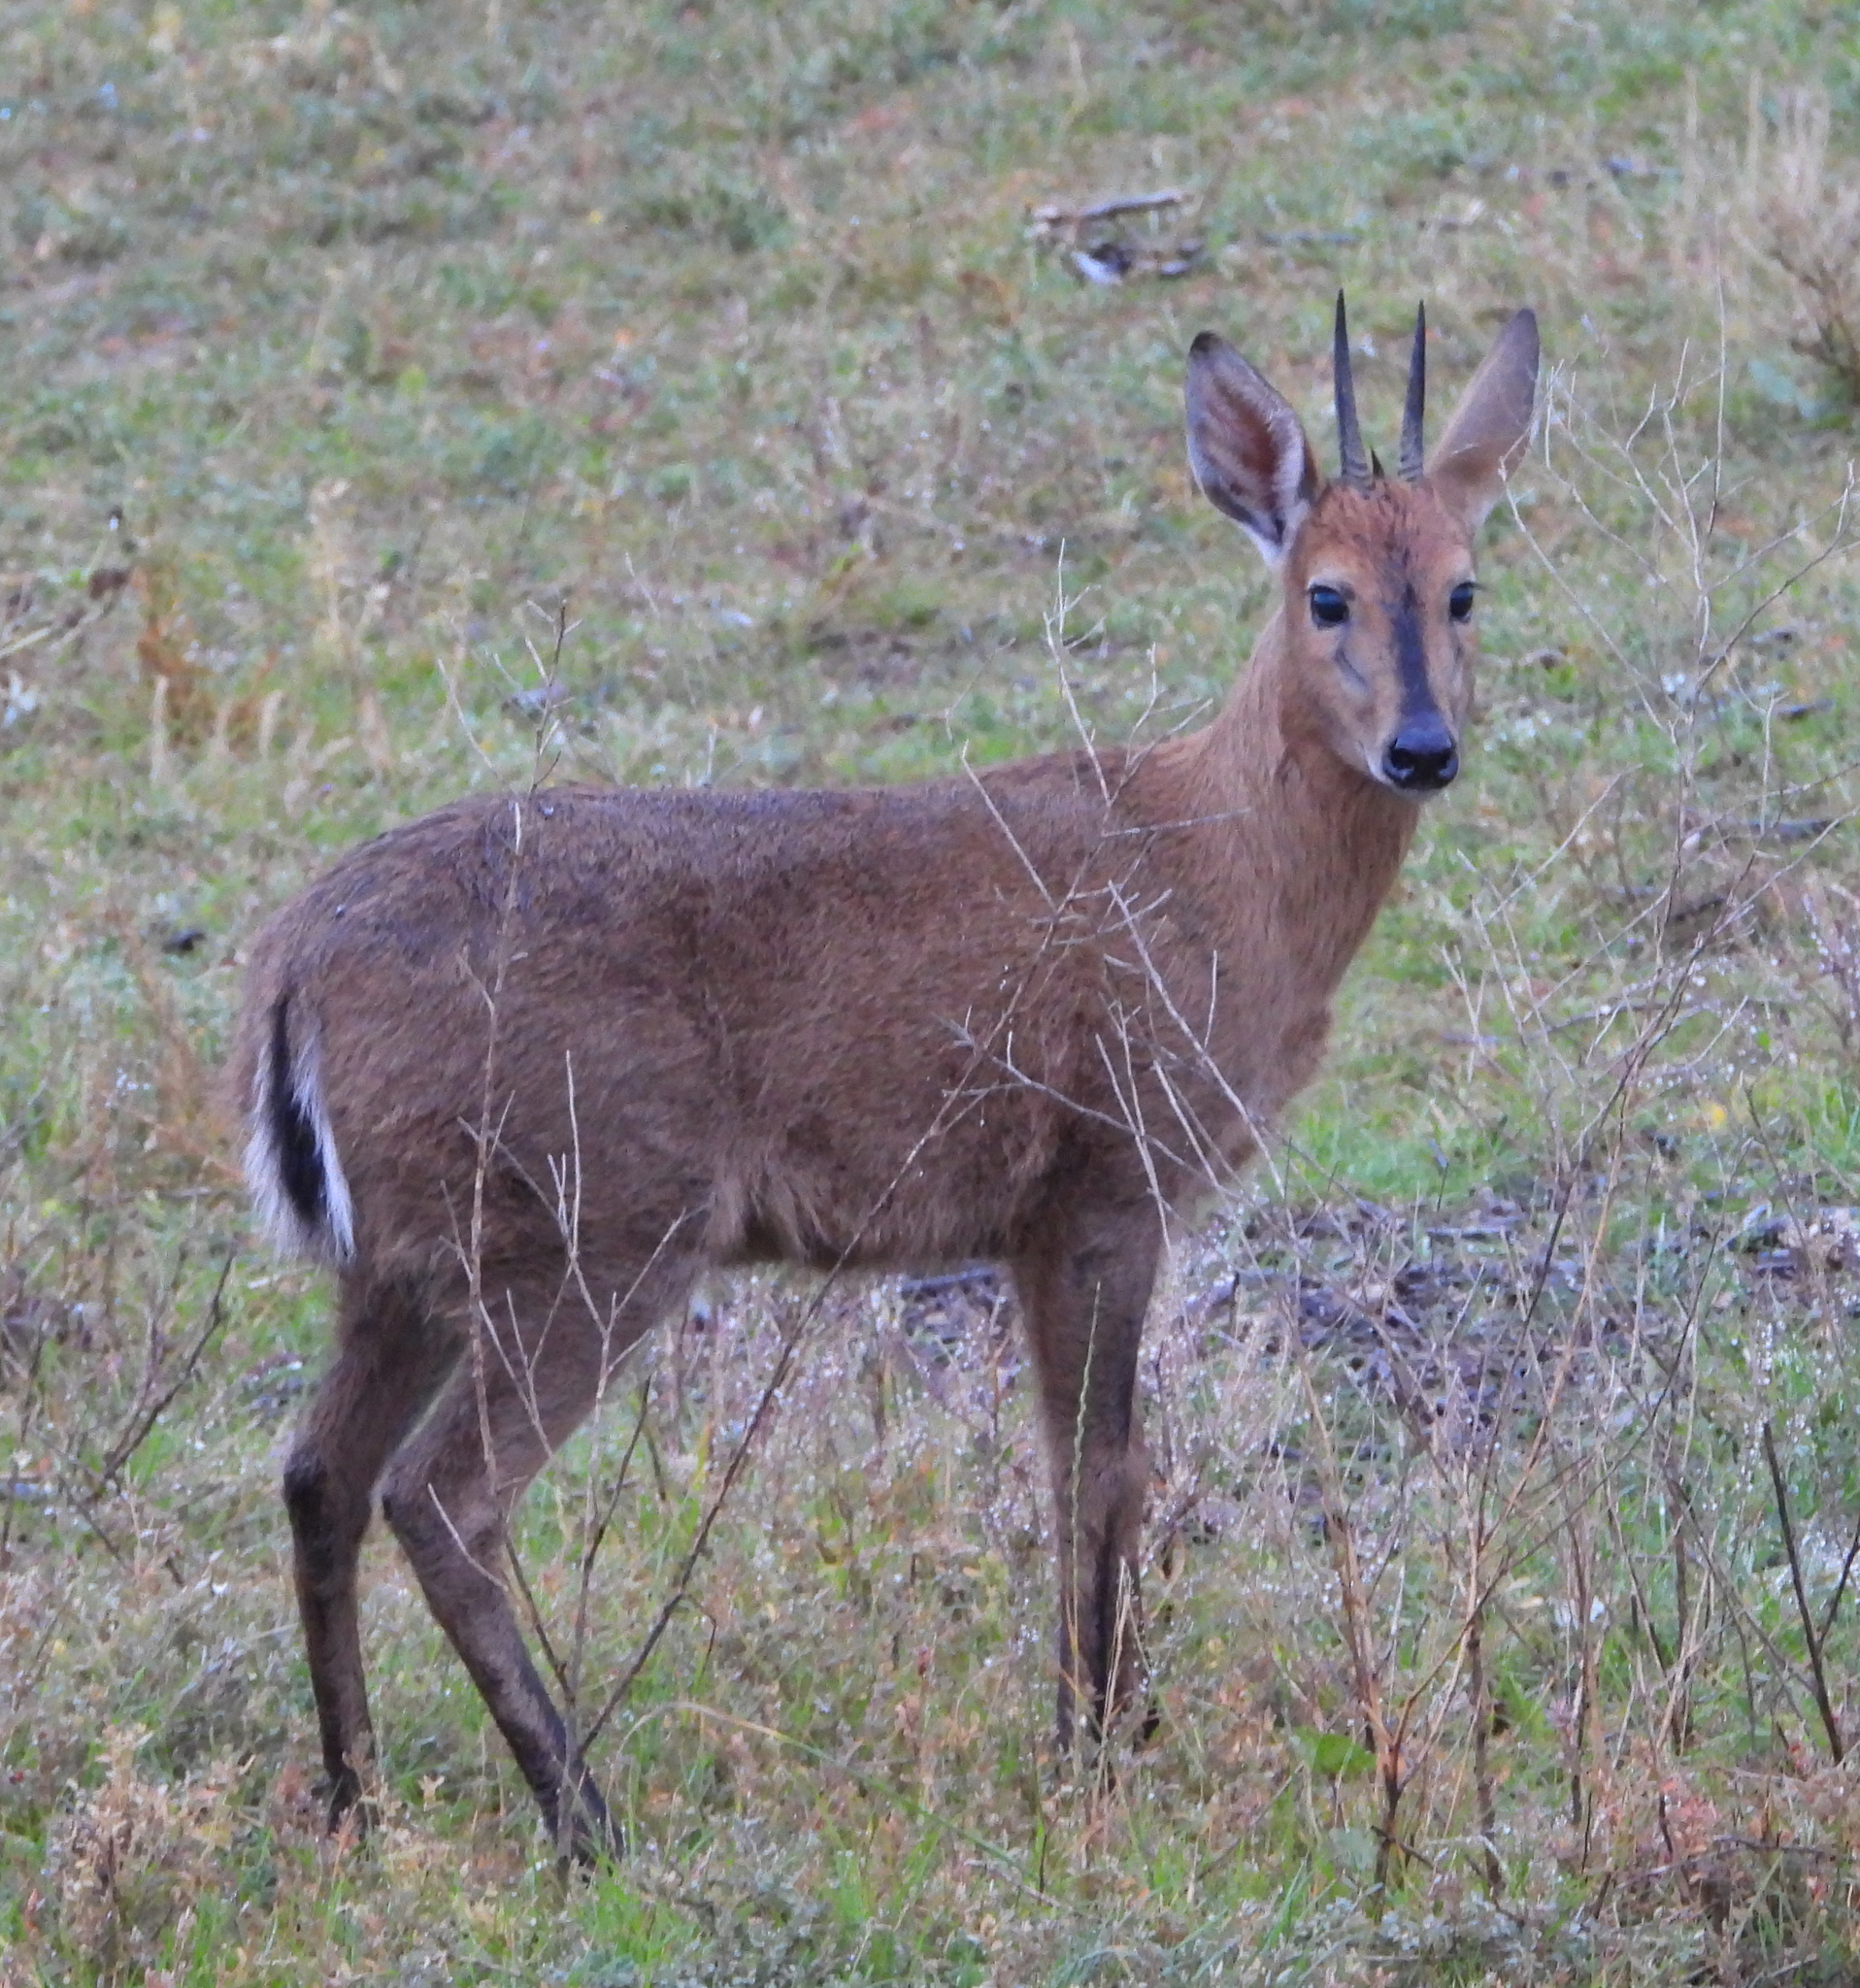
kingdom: Animalia
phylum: Chordata
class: Mammalia
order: Artiodactyla
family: Bovidae
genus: Sylvicapra
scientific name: Sylvicapra grimmia
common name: Bush duiker
